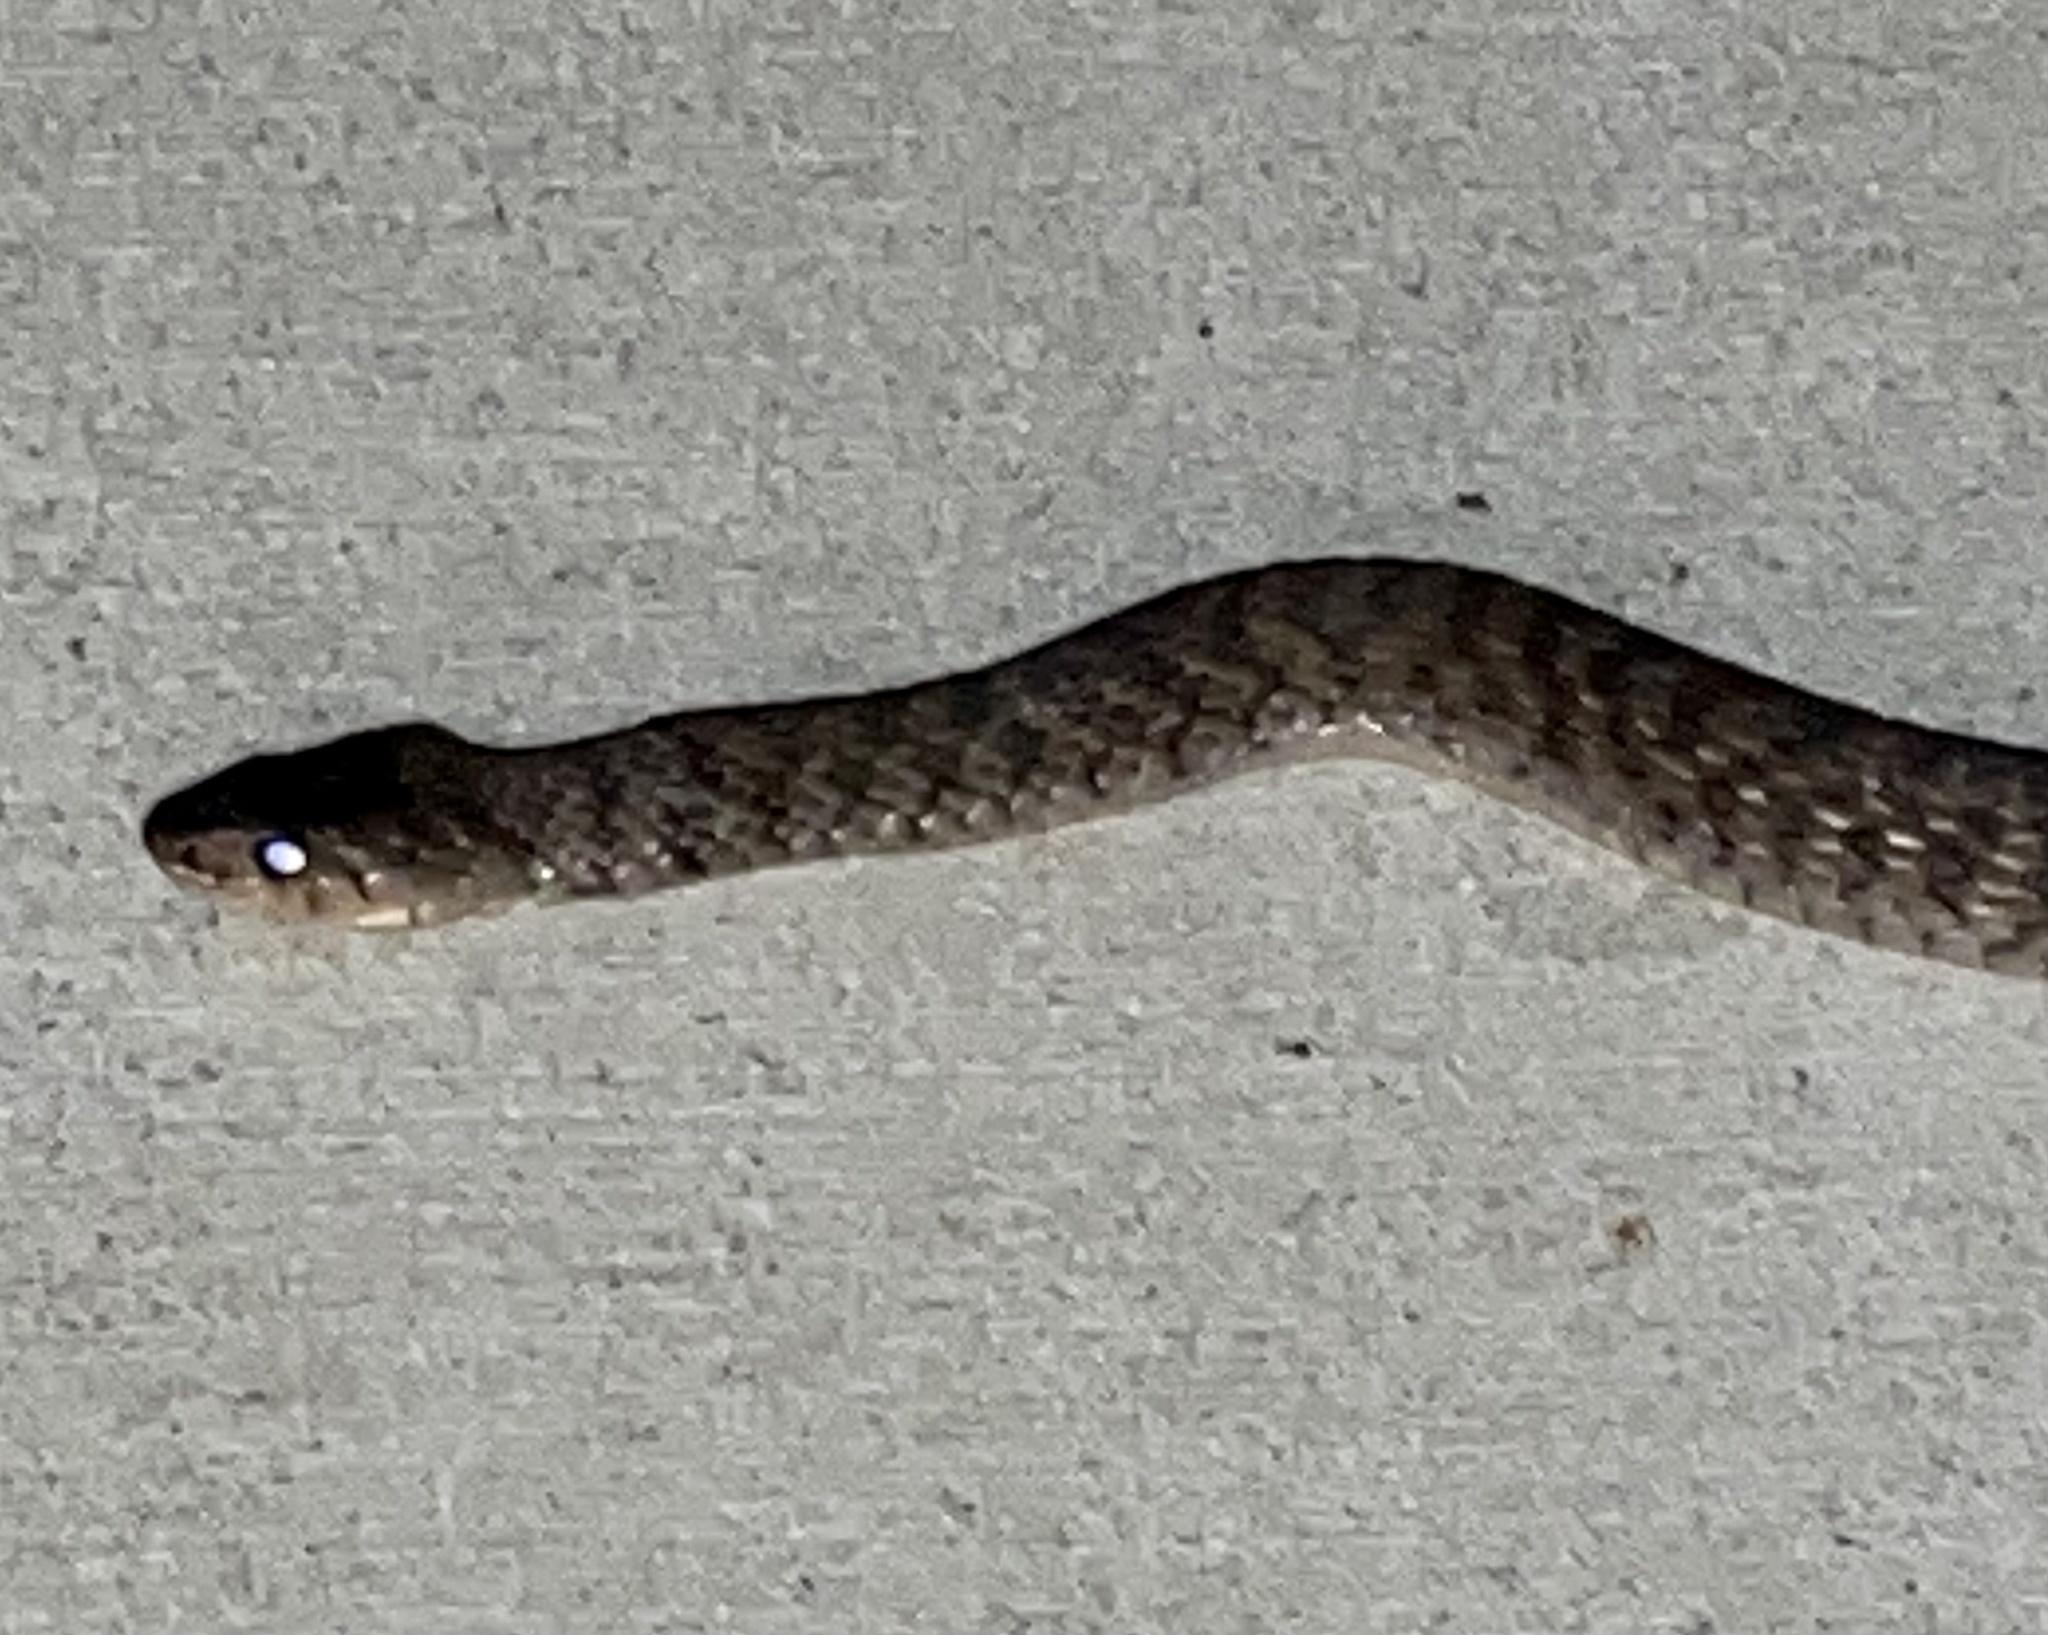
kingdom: Animalia
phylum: Chordata
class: Squamata
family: Colubridae
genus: Tropidonophis
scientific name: Tropidonophis mairii
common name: Common keelback
